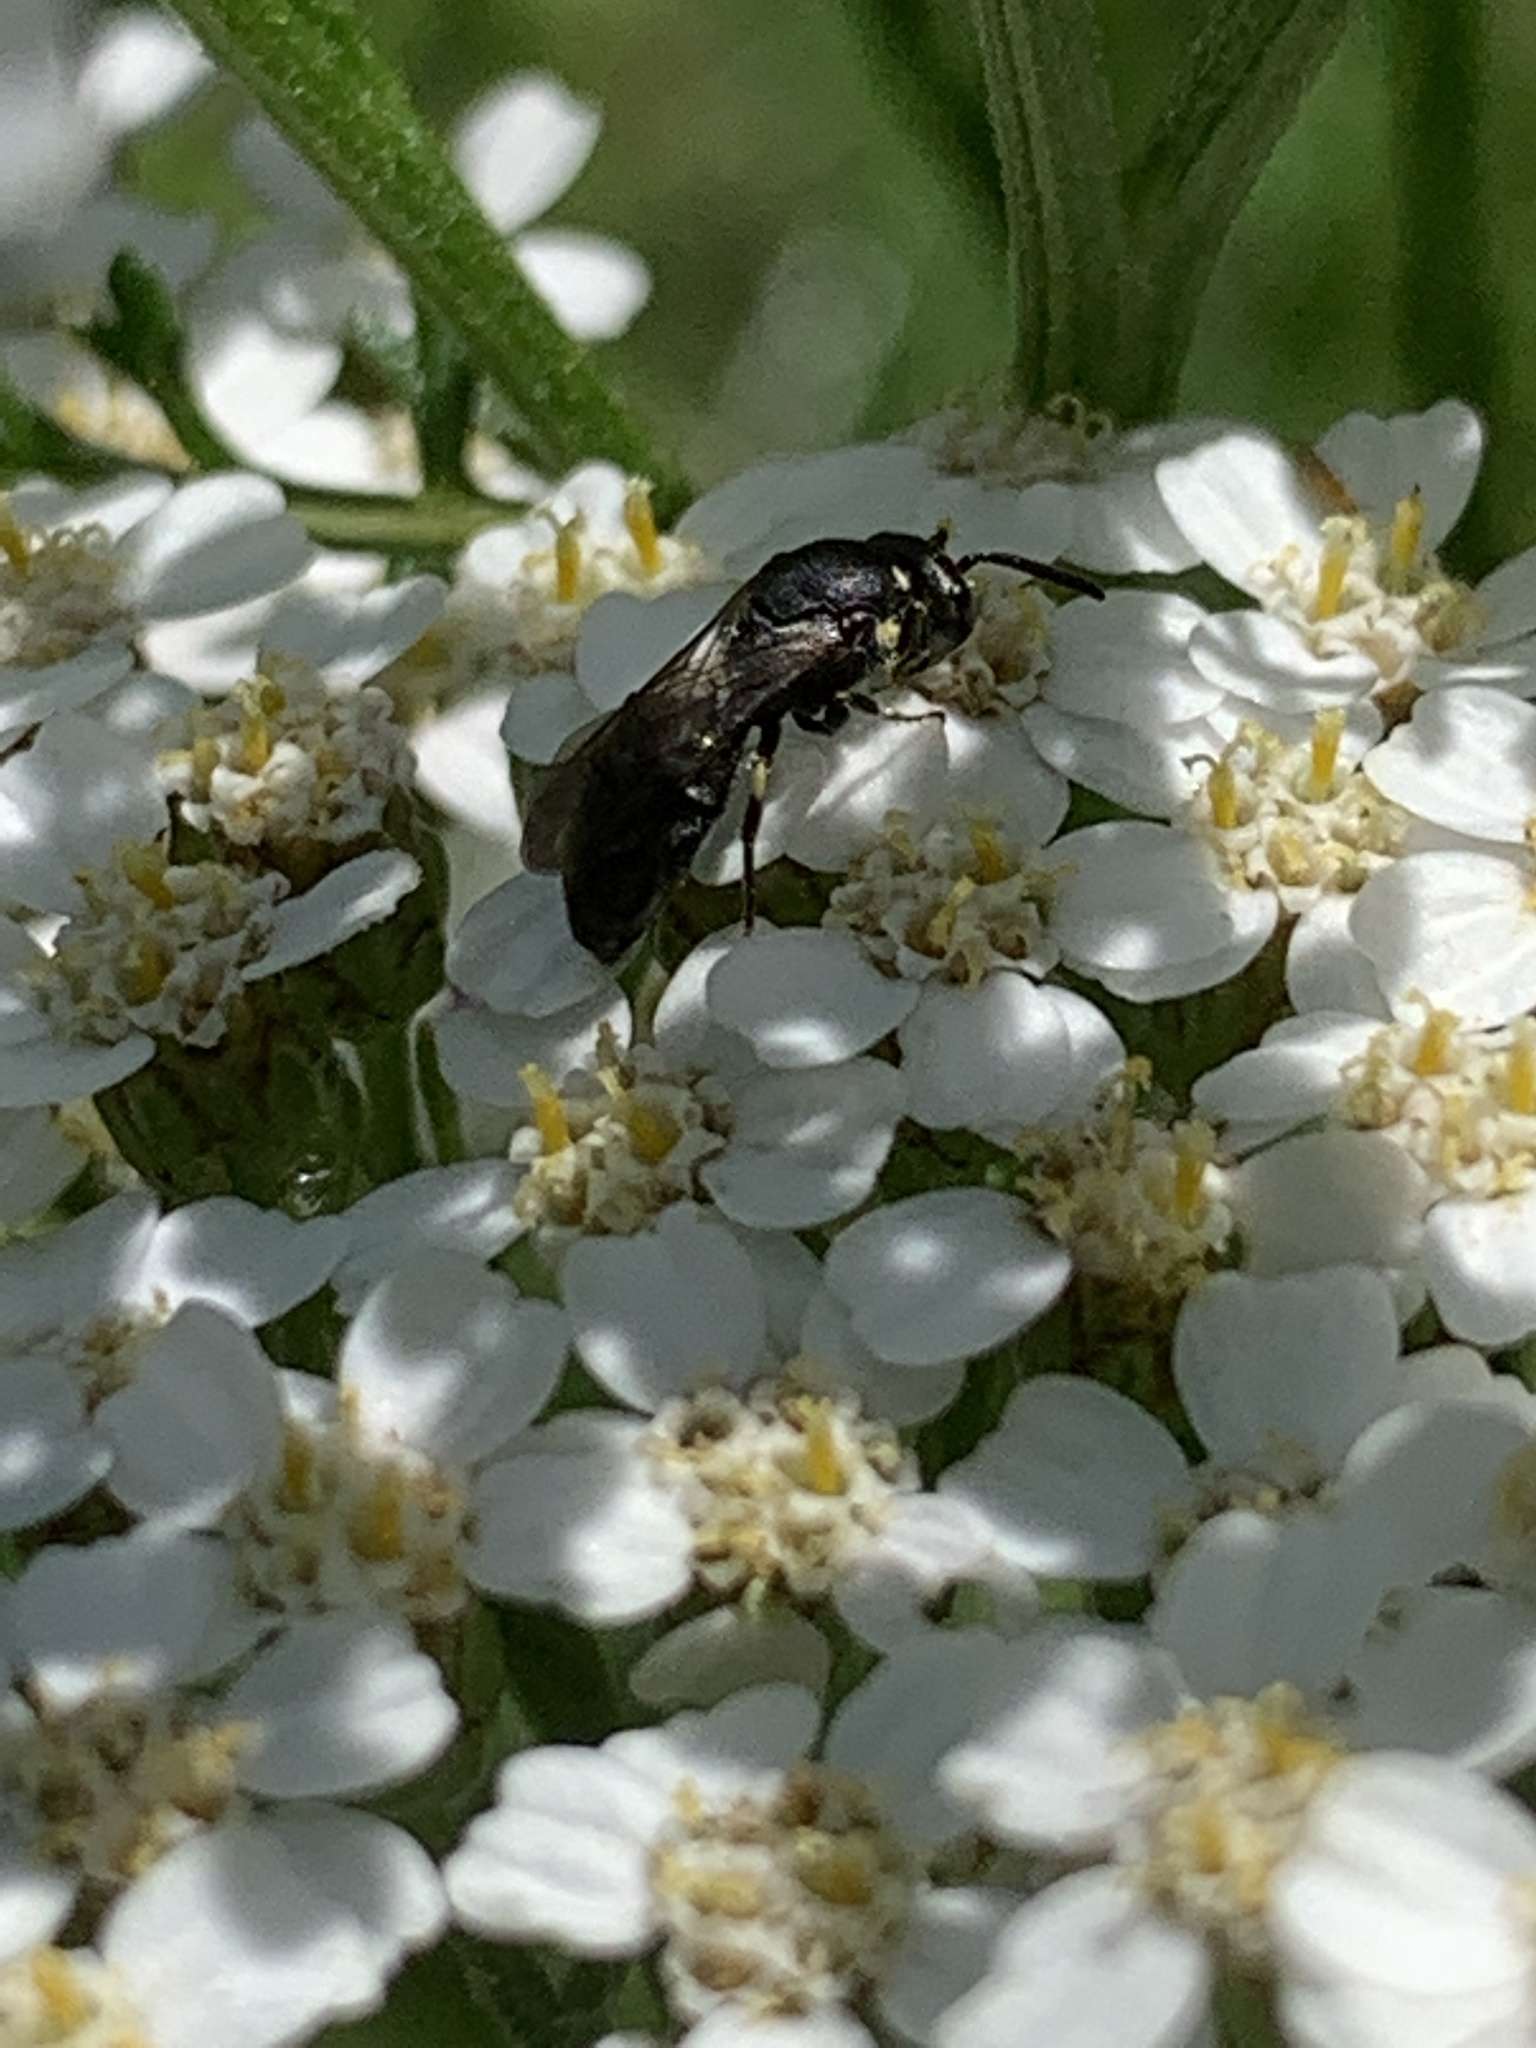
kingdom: Animalia
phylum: Arthropoda
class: Insecta
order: Hymenoptera
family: Colletidae
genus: Hylaeus
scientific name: Hylaeus
